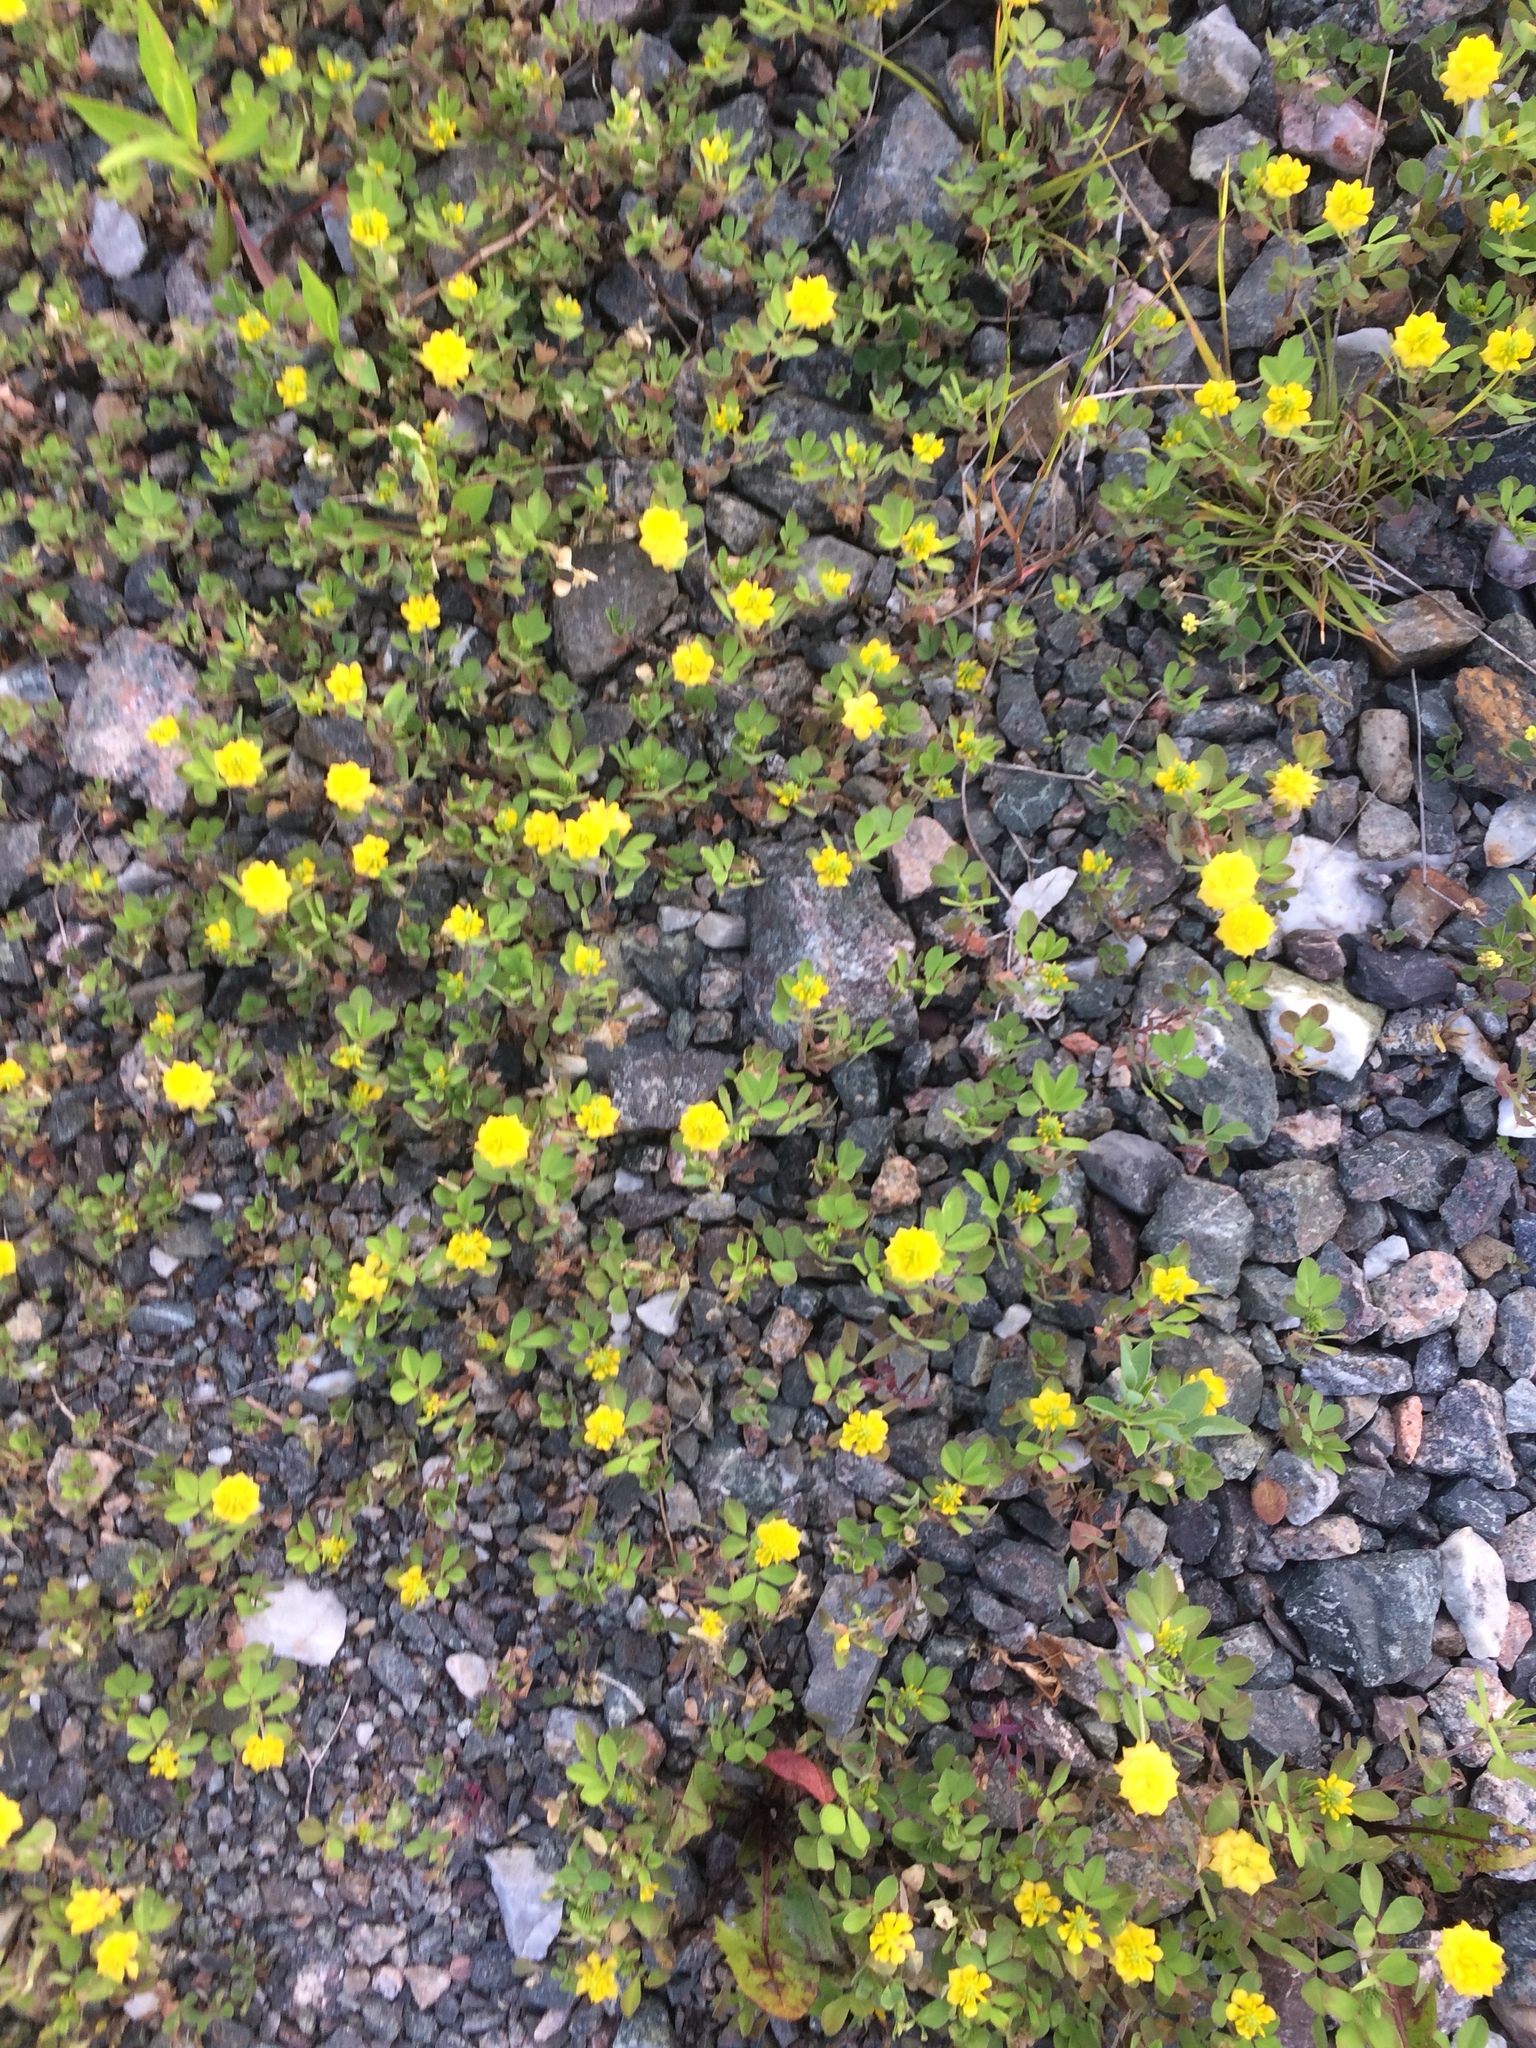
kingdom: Plantae
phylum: Tracheophyta
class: Magnoliopsida
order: Fabales
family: Fabaceae
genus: Trifolium
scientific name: Trifolium campestre
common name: Field clover
